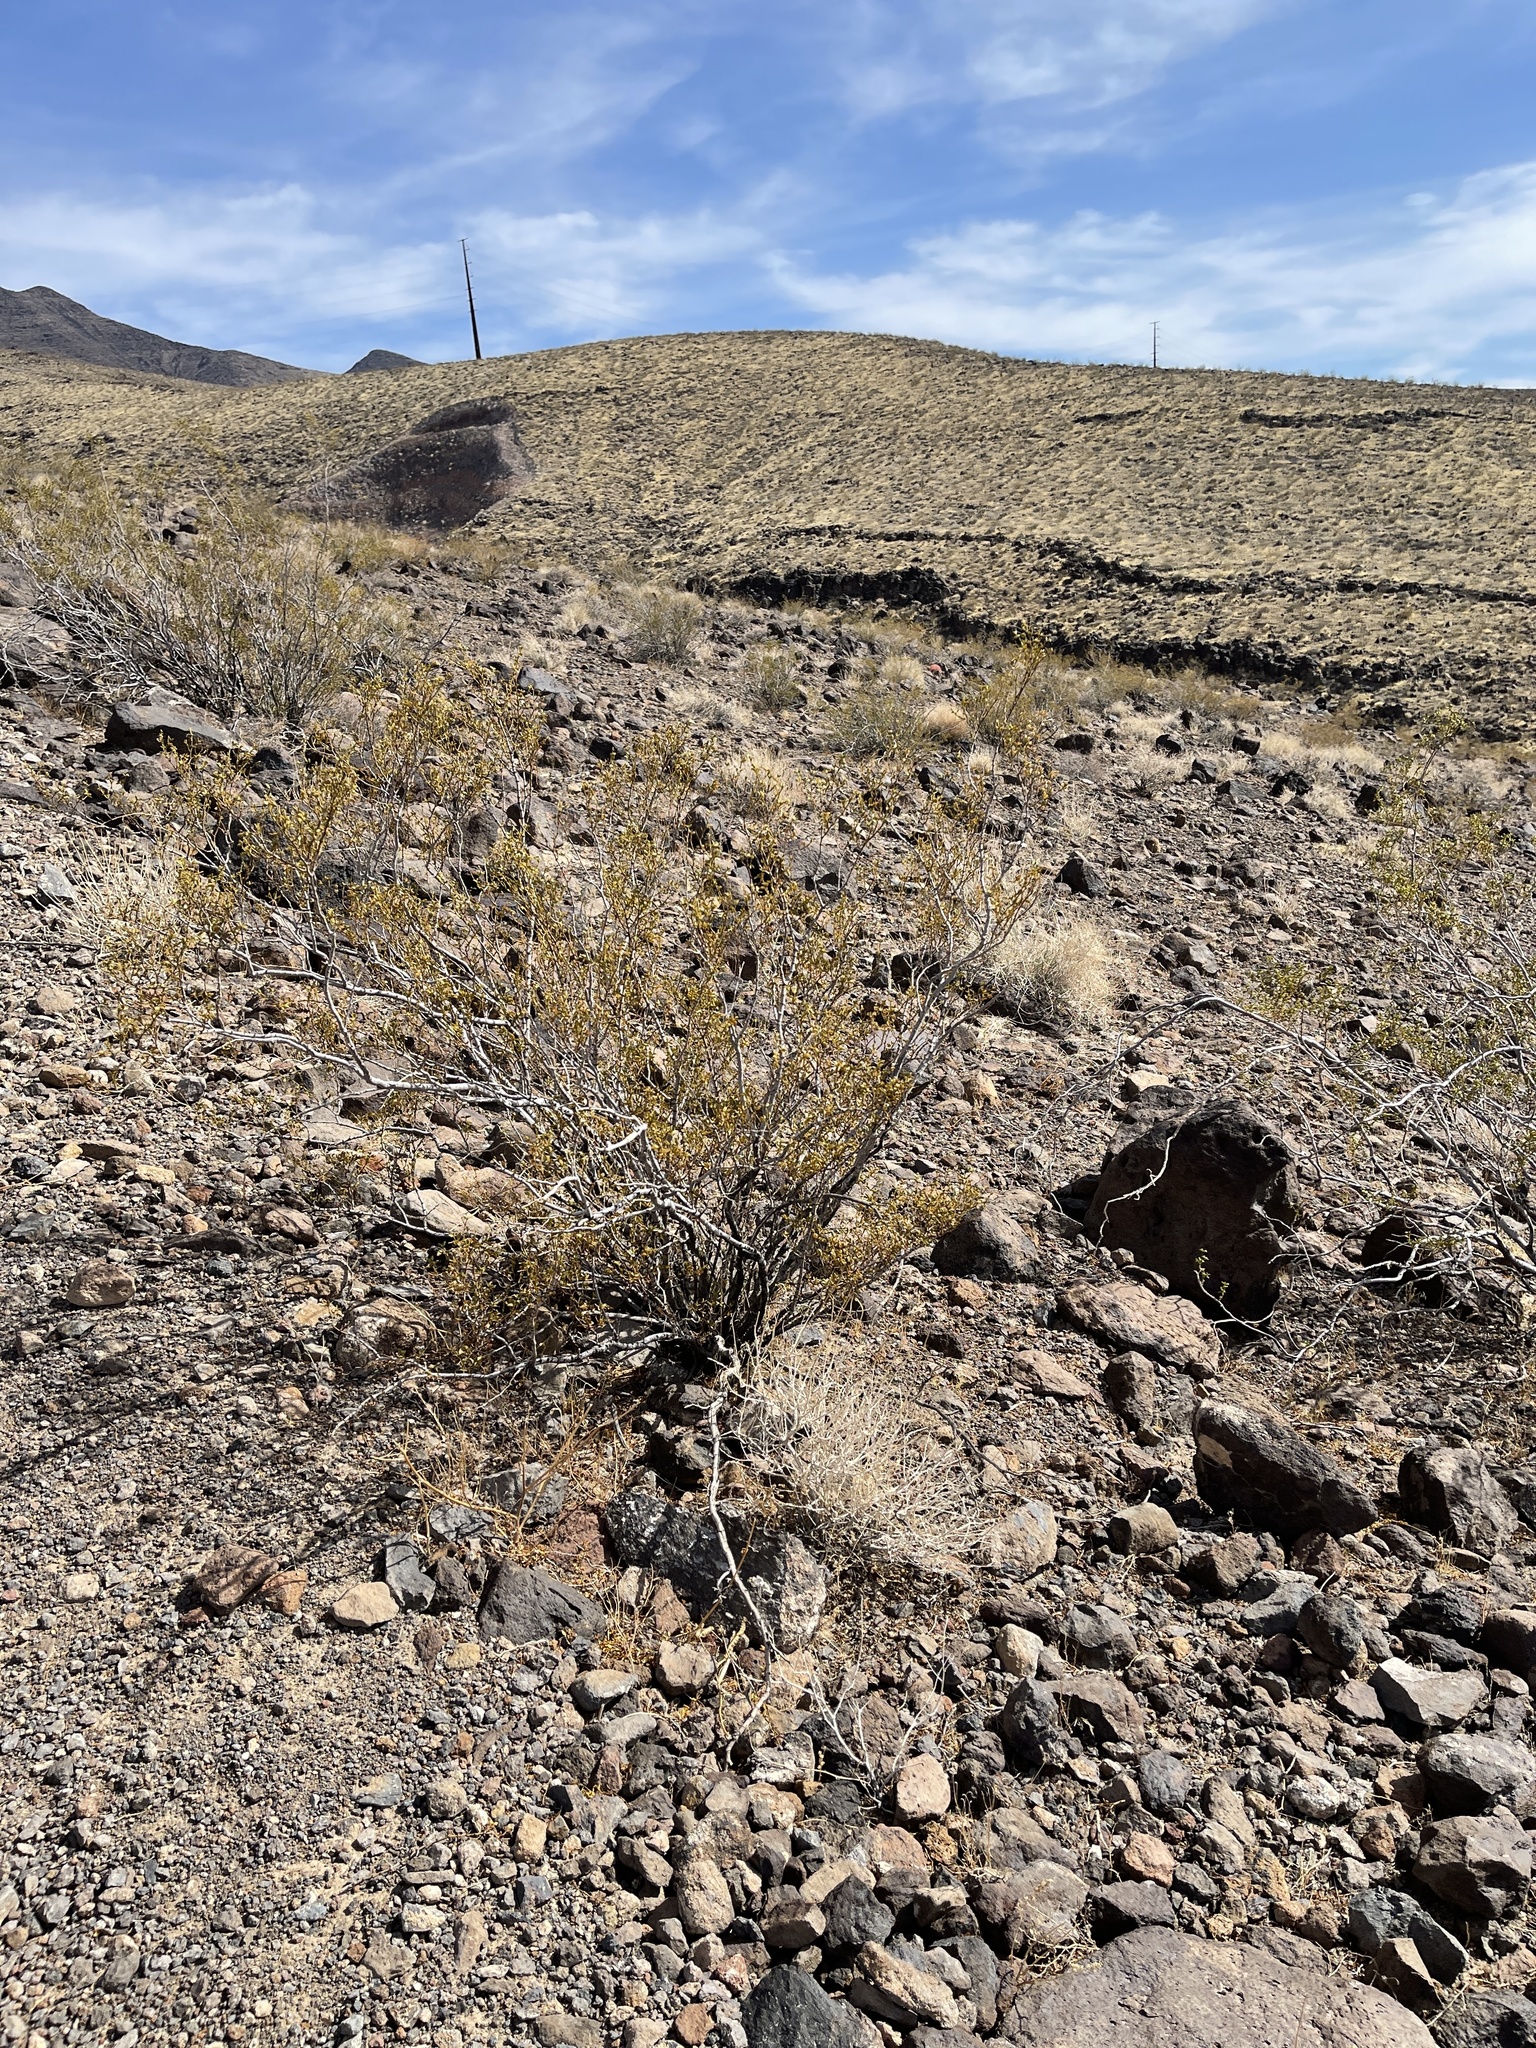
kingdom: Plantae
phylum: Tracheophyta
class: Magnoliopsida
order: Zygophyllales
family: Zygophyllaceae
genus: Larrea
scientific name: Larrea tridentata
